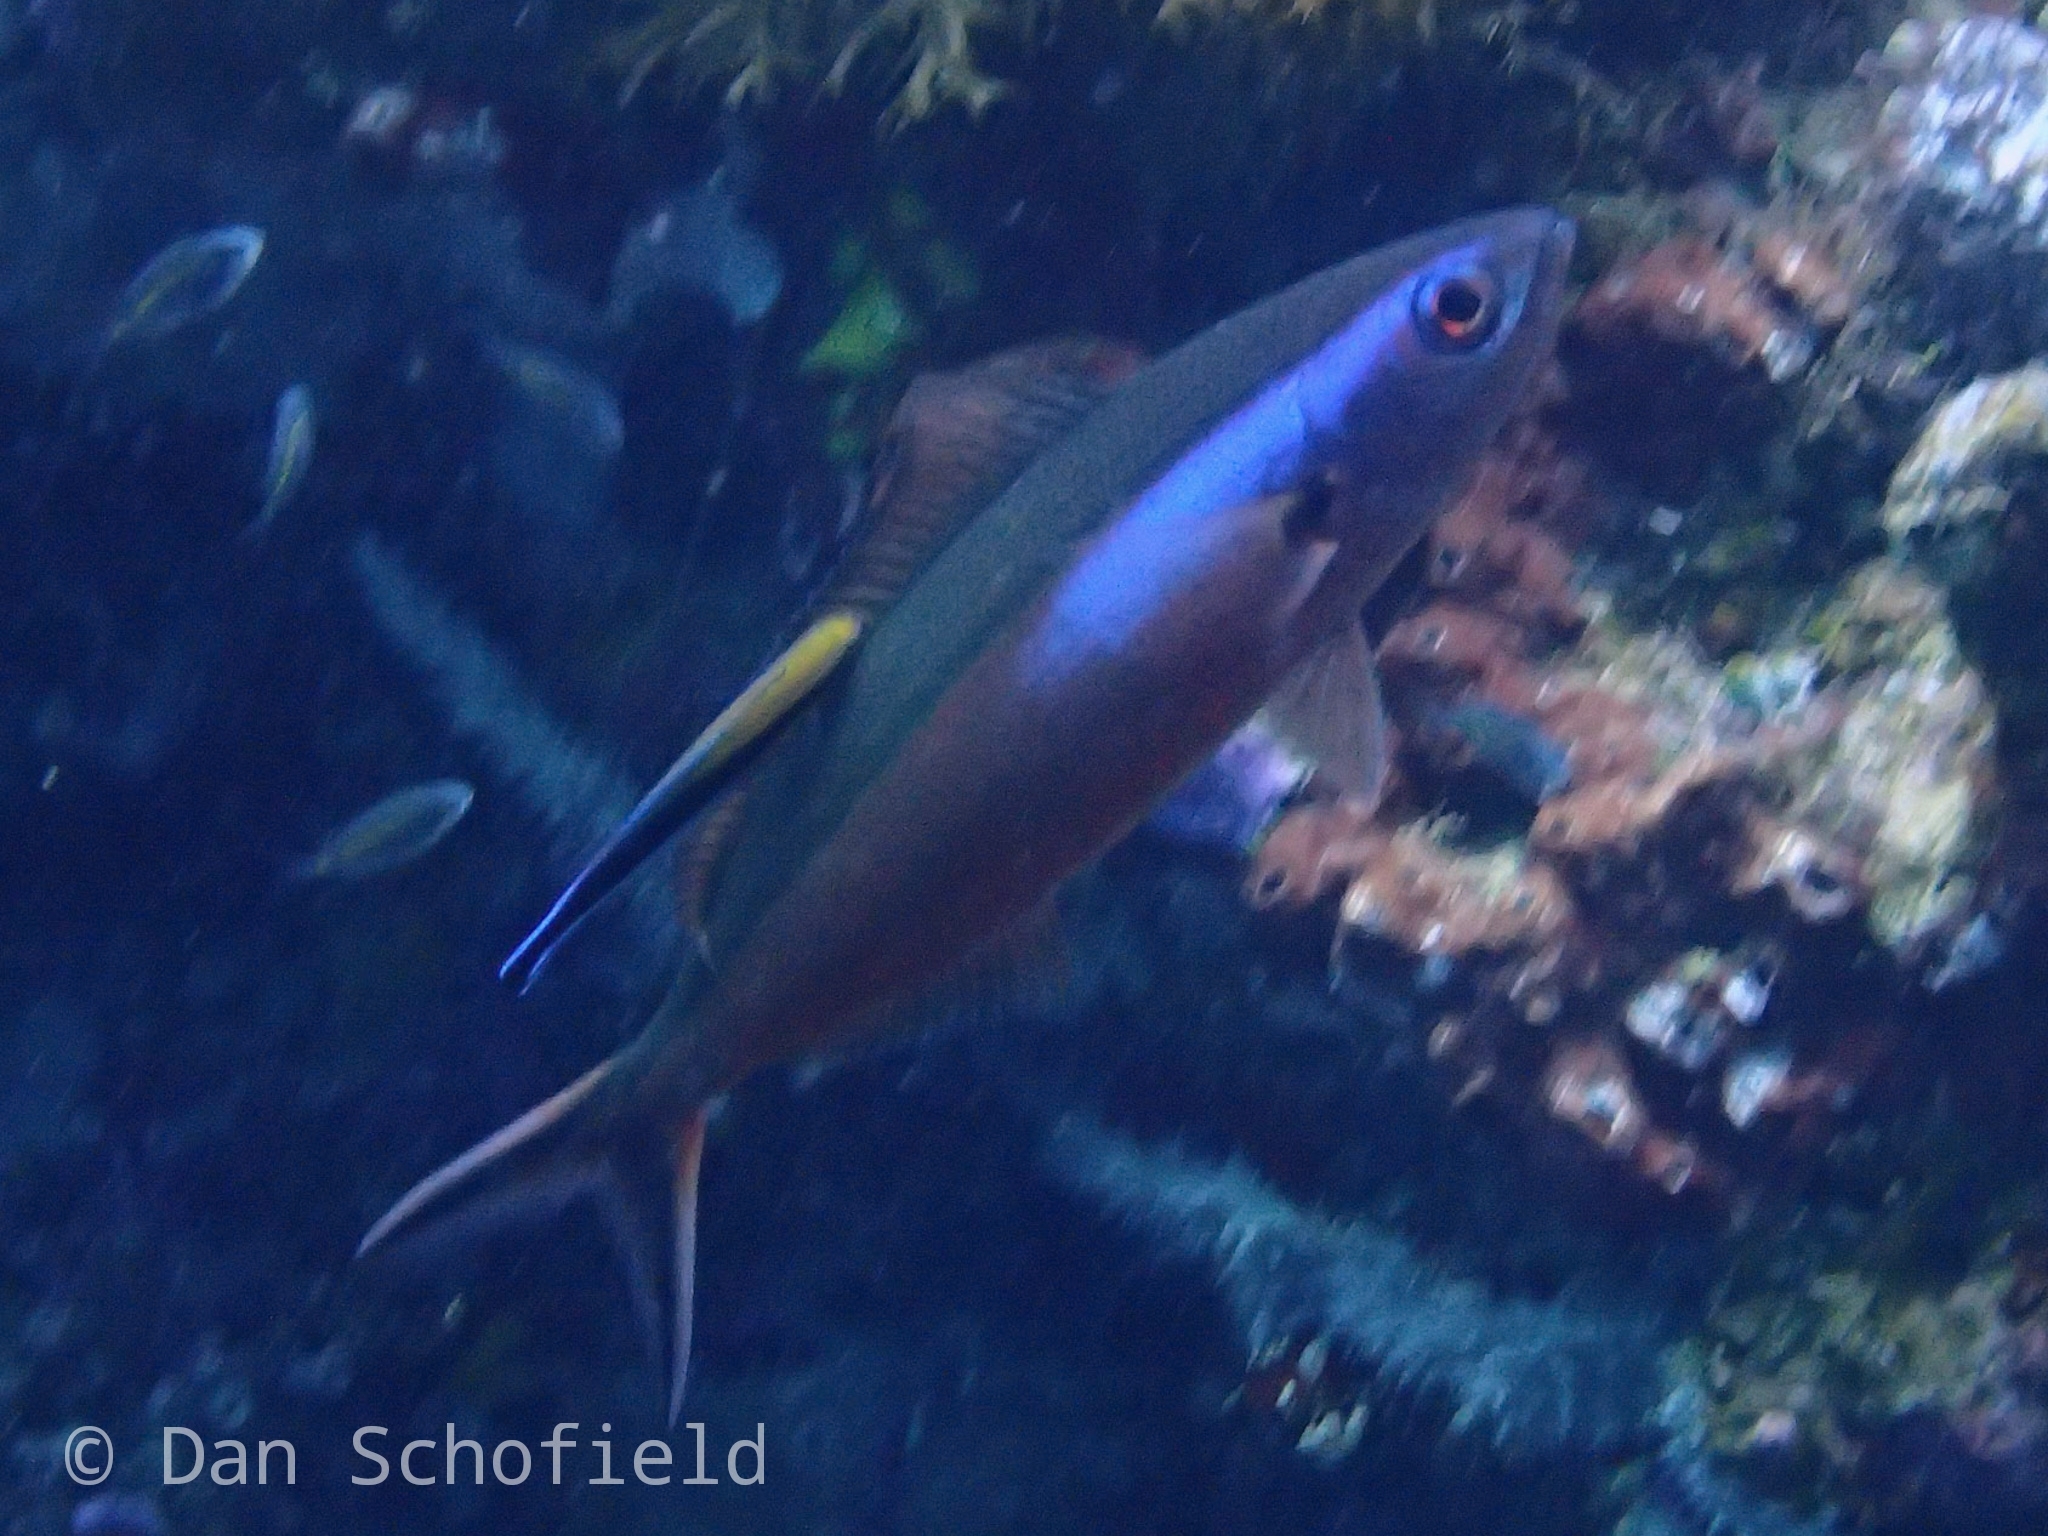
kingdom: Animalia
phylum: Chordata
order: Perciformes
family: Caesionidae
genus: Pterocaesio
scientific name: Pterocaesio tile
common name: Dark-banded fusilier
